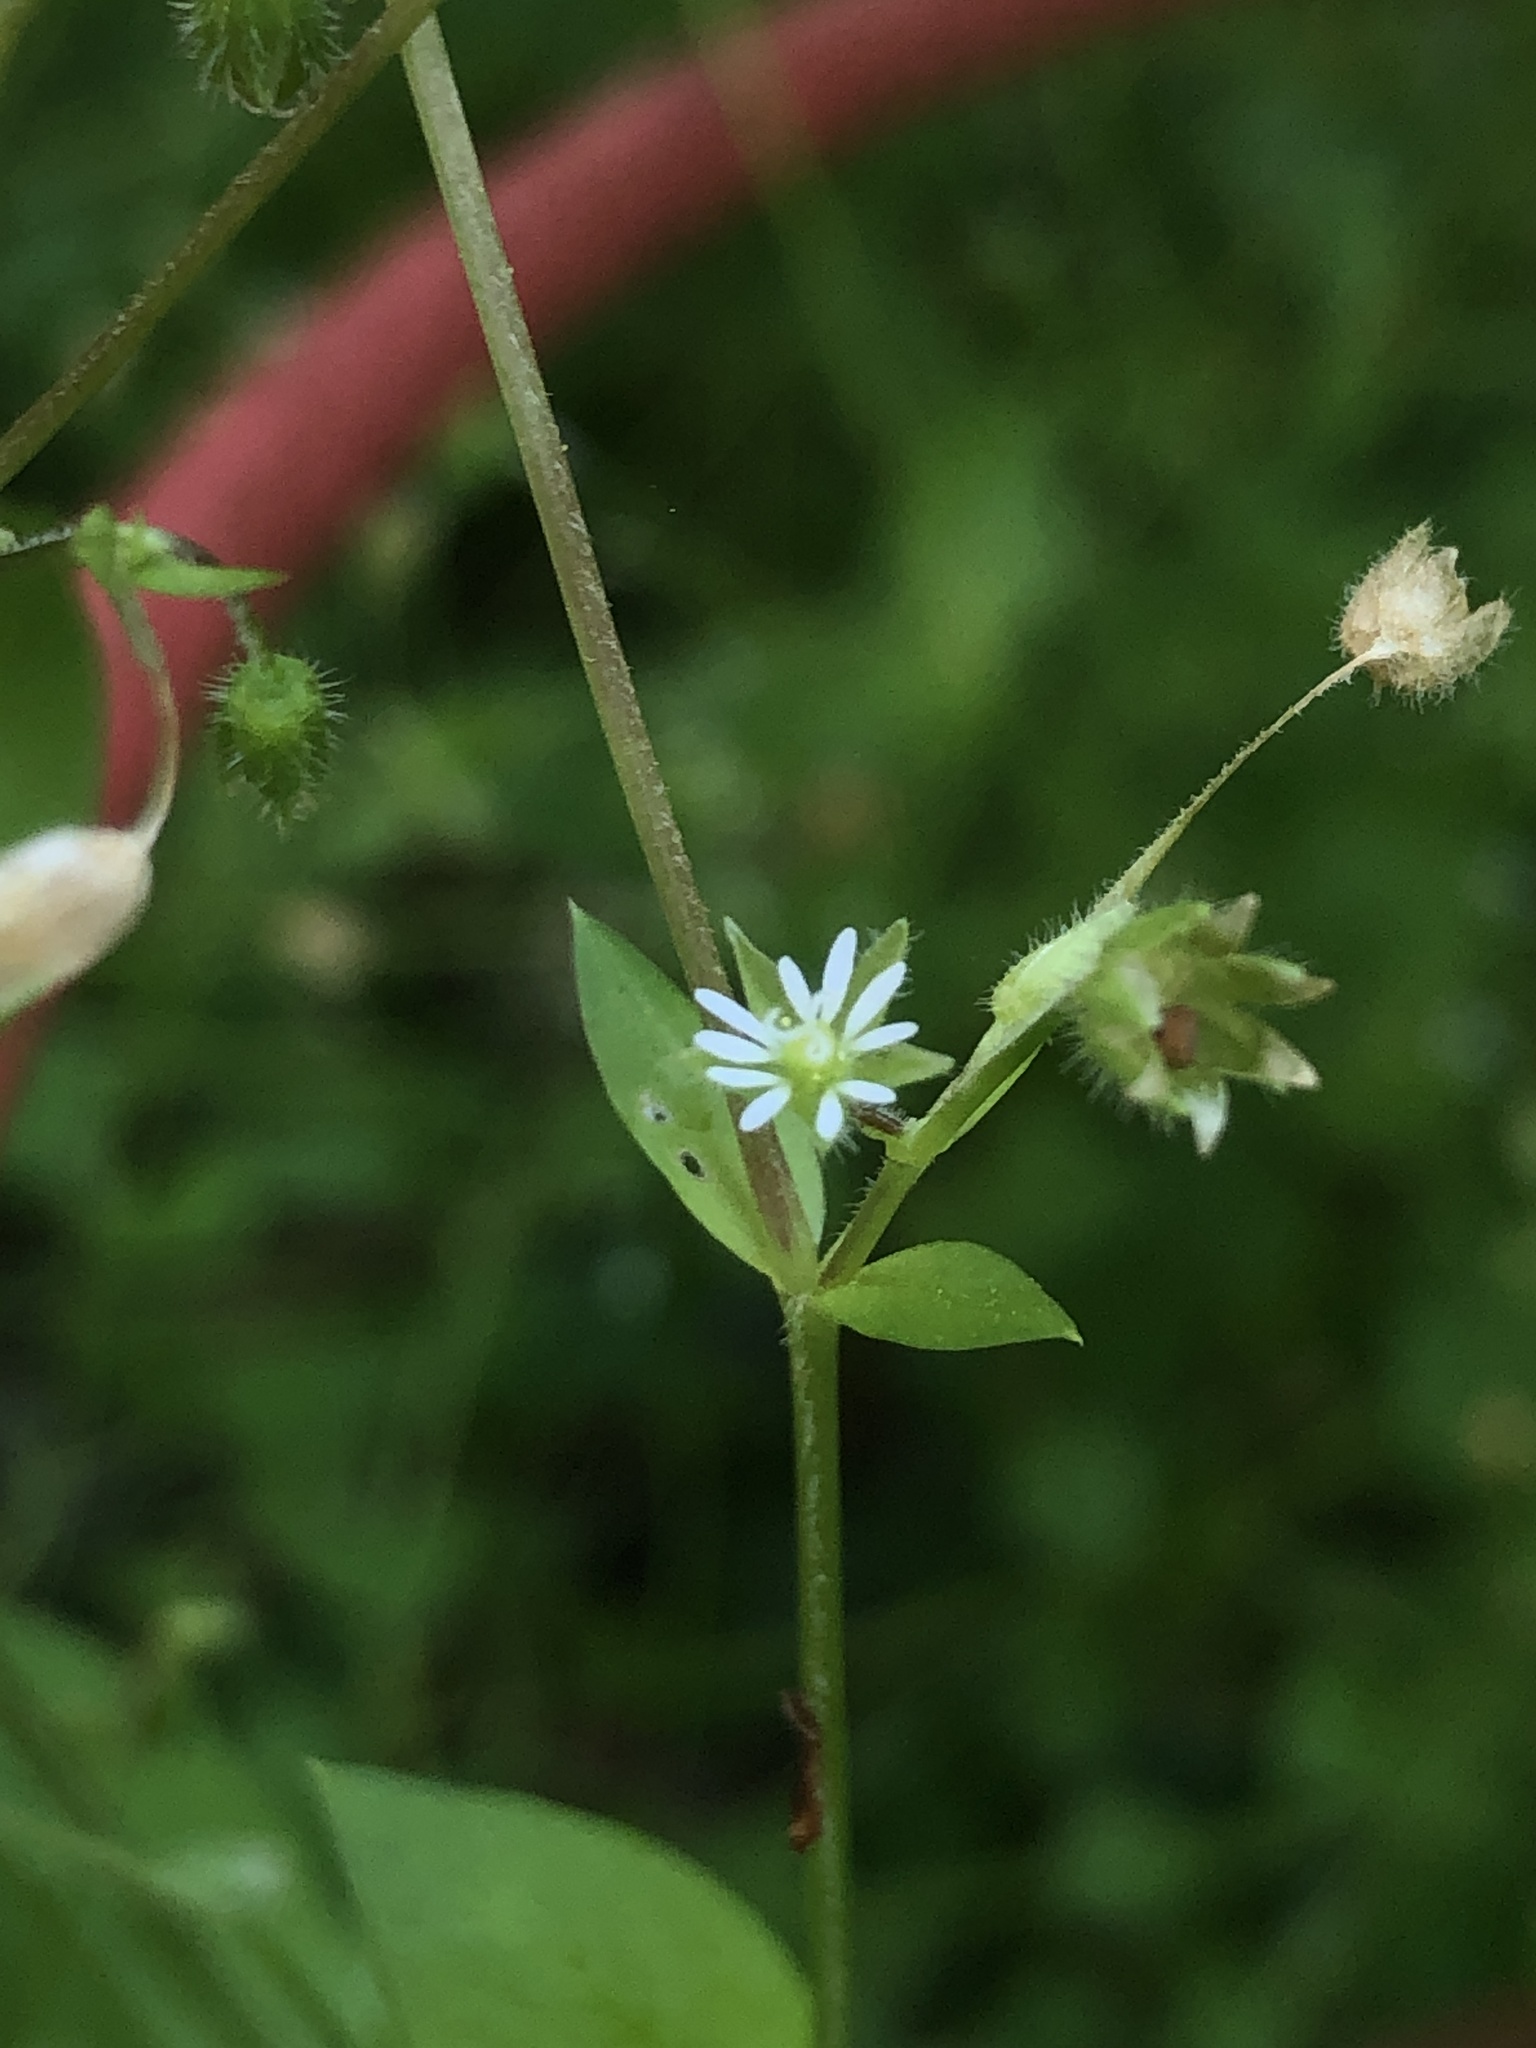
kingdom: Plantae
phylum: Tracheophyta
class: Magnoliopsida
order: Caryophyllales
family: Caryophyllaceae
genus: Stellaria
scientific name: Stellaria media
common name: Common chickweed
